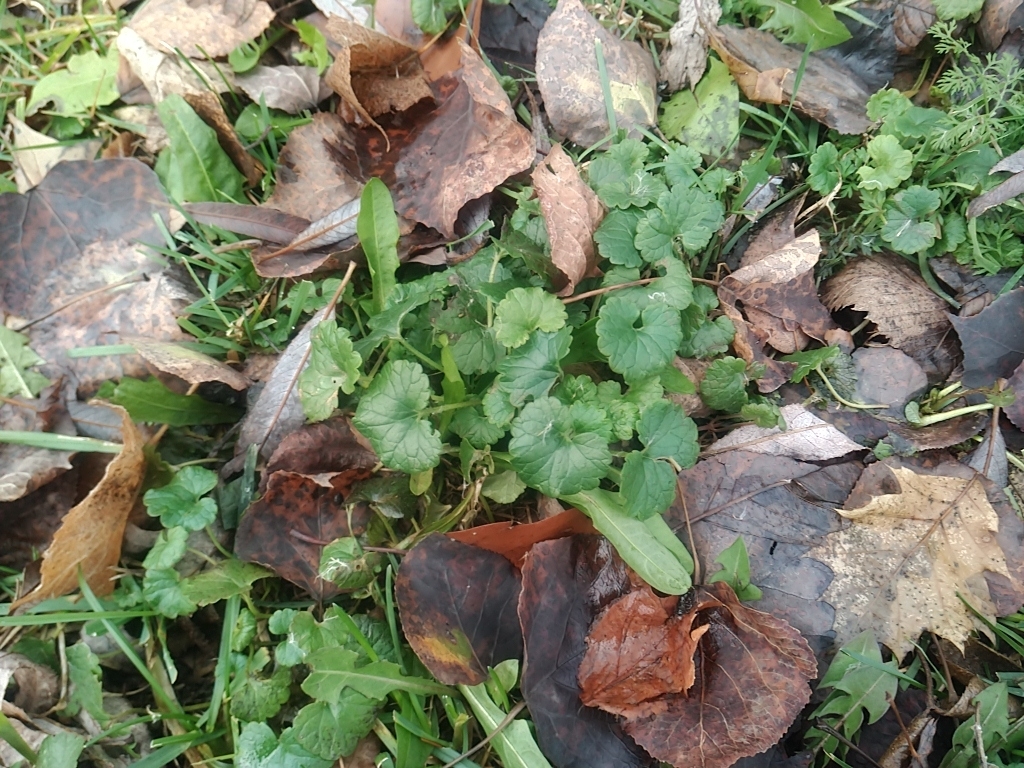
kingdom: Plantae
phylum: Tracheophyta
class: Magnoliopsida
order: Lamiales
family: Lamiaceae
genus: Glechoma
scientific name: Glechoma hederacea
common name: Ground ivy
